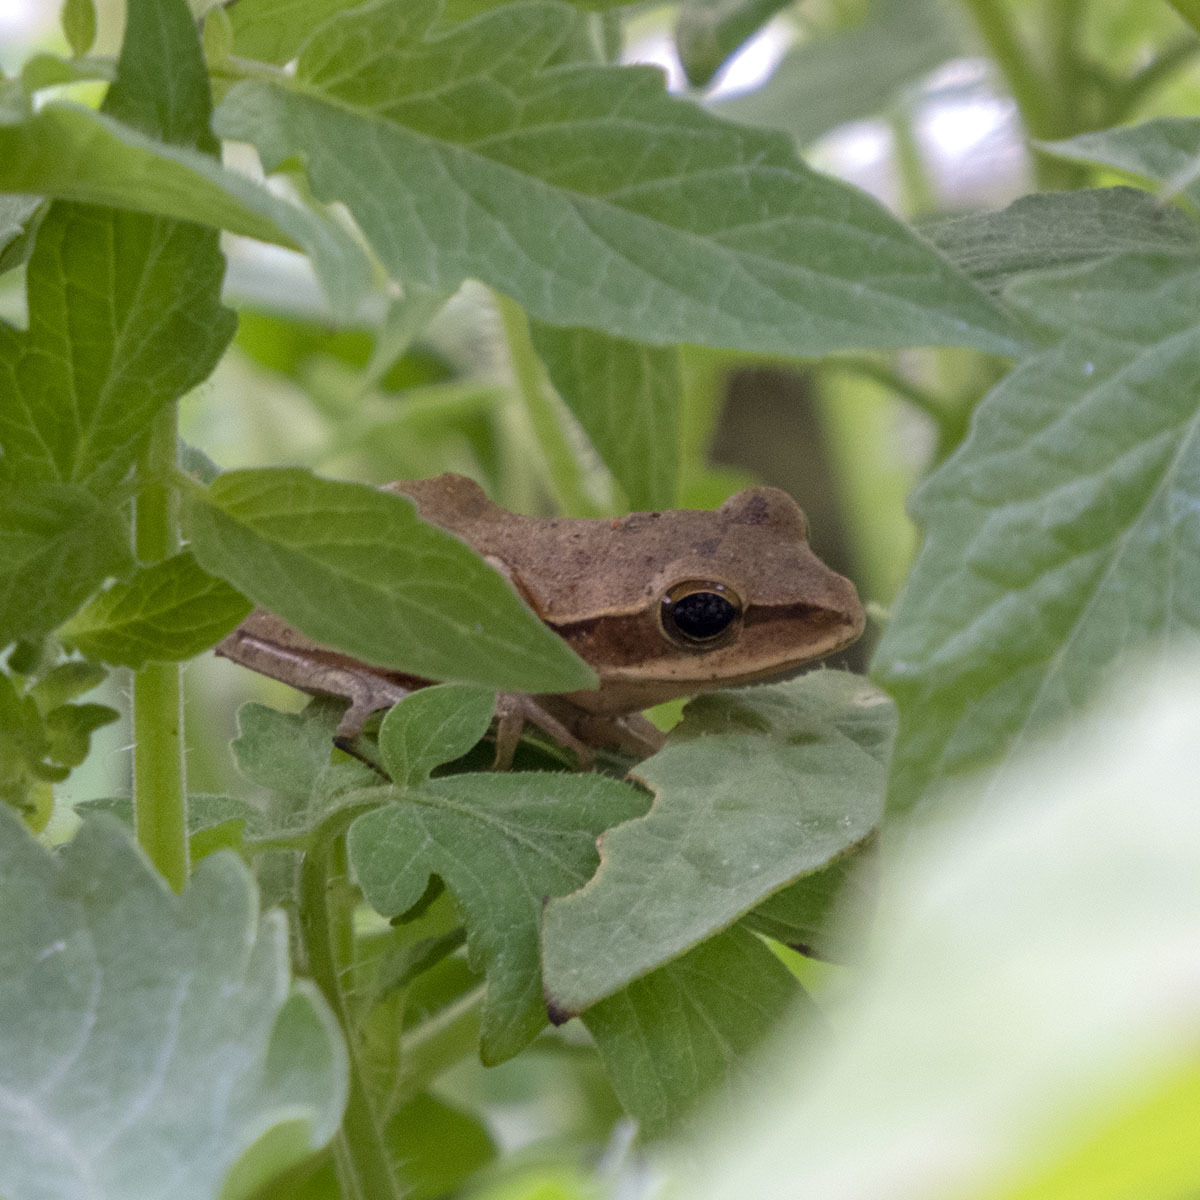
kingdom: Animalia
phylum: Chordata
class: Amphibia
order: Anura
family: Rhacophoridae
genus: Polypedates
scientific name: Polypedates maculatus
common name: Himalayan tree frog
